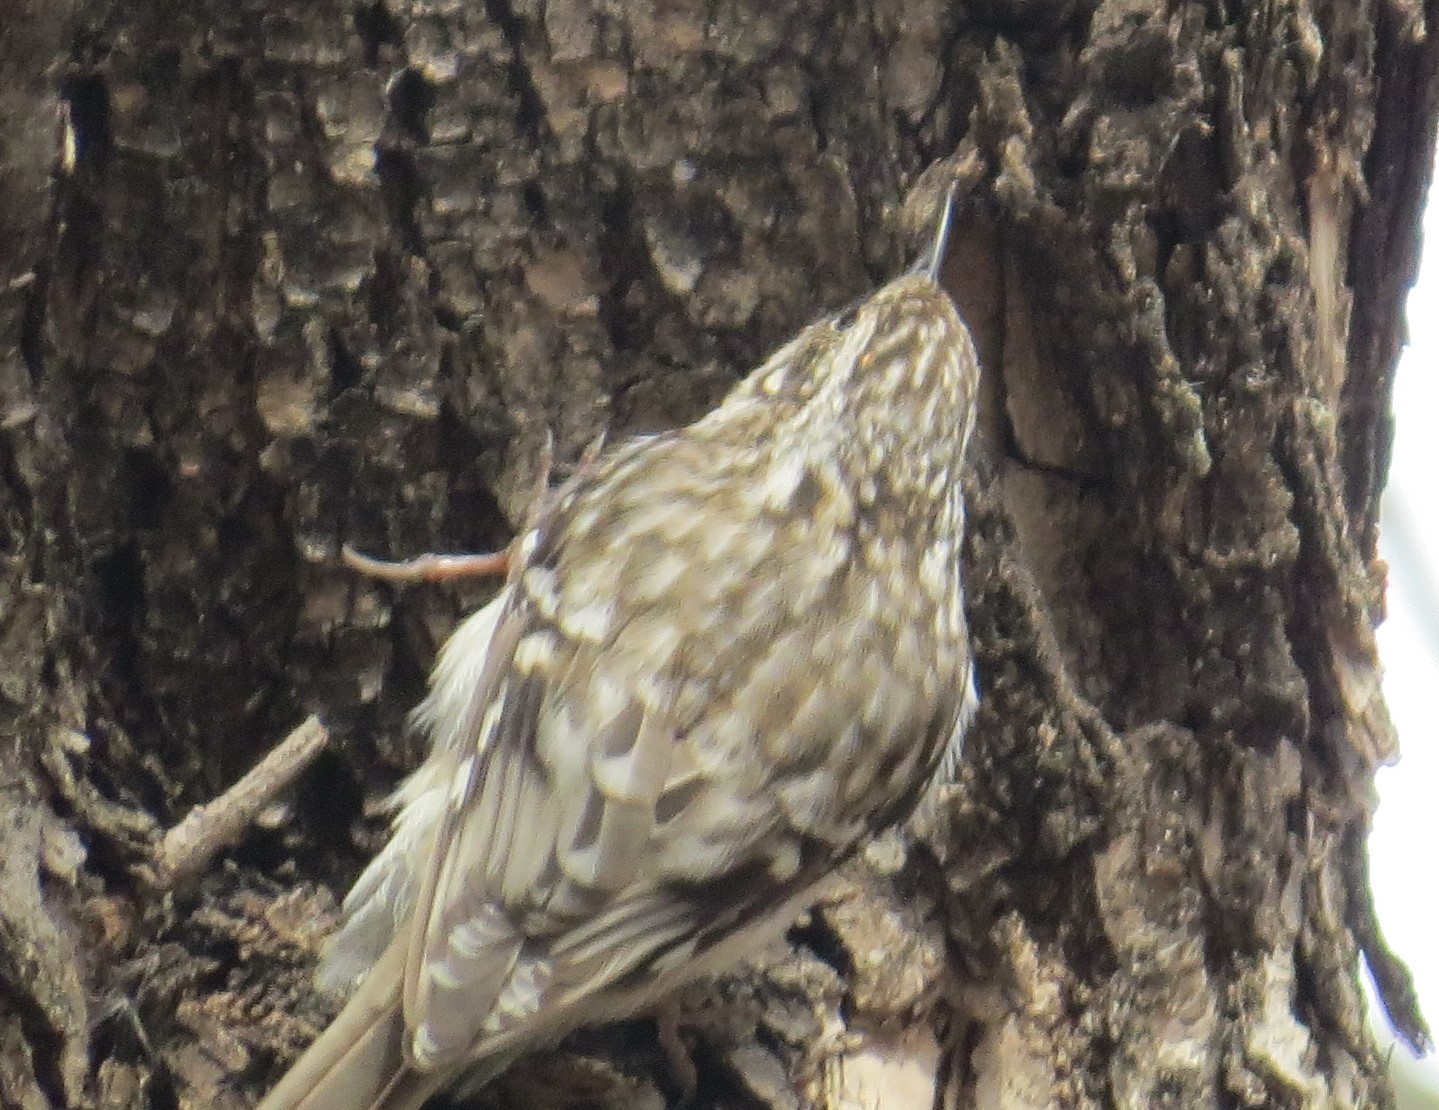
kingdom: Animalia
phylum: Chordata
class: Aves
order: Passeriformes
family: Certhiidae
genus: Certhia
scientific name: Certhia americana
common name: Brown creeper
